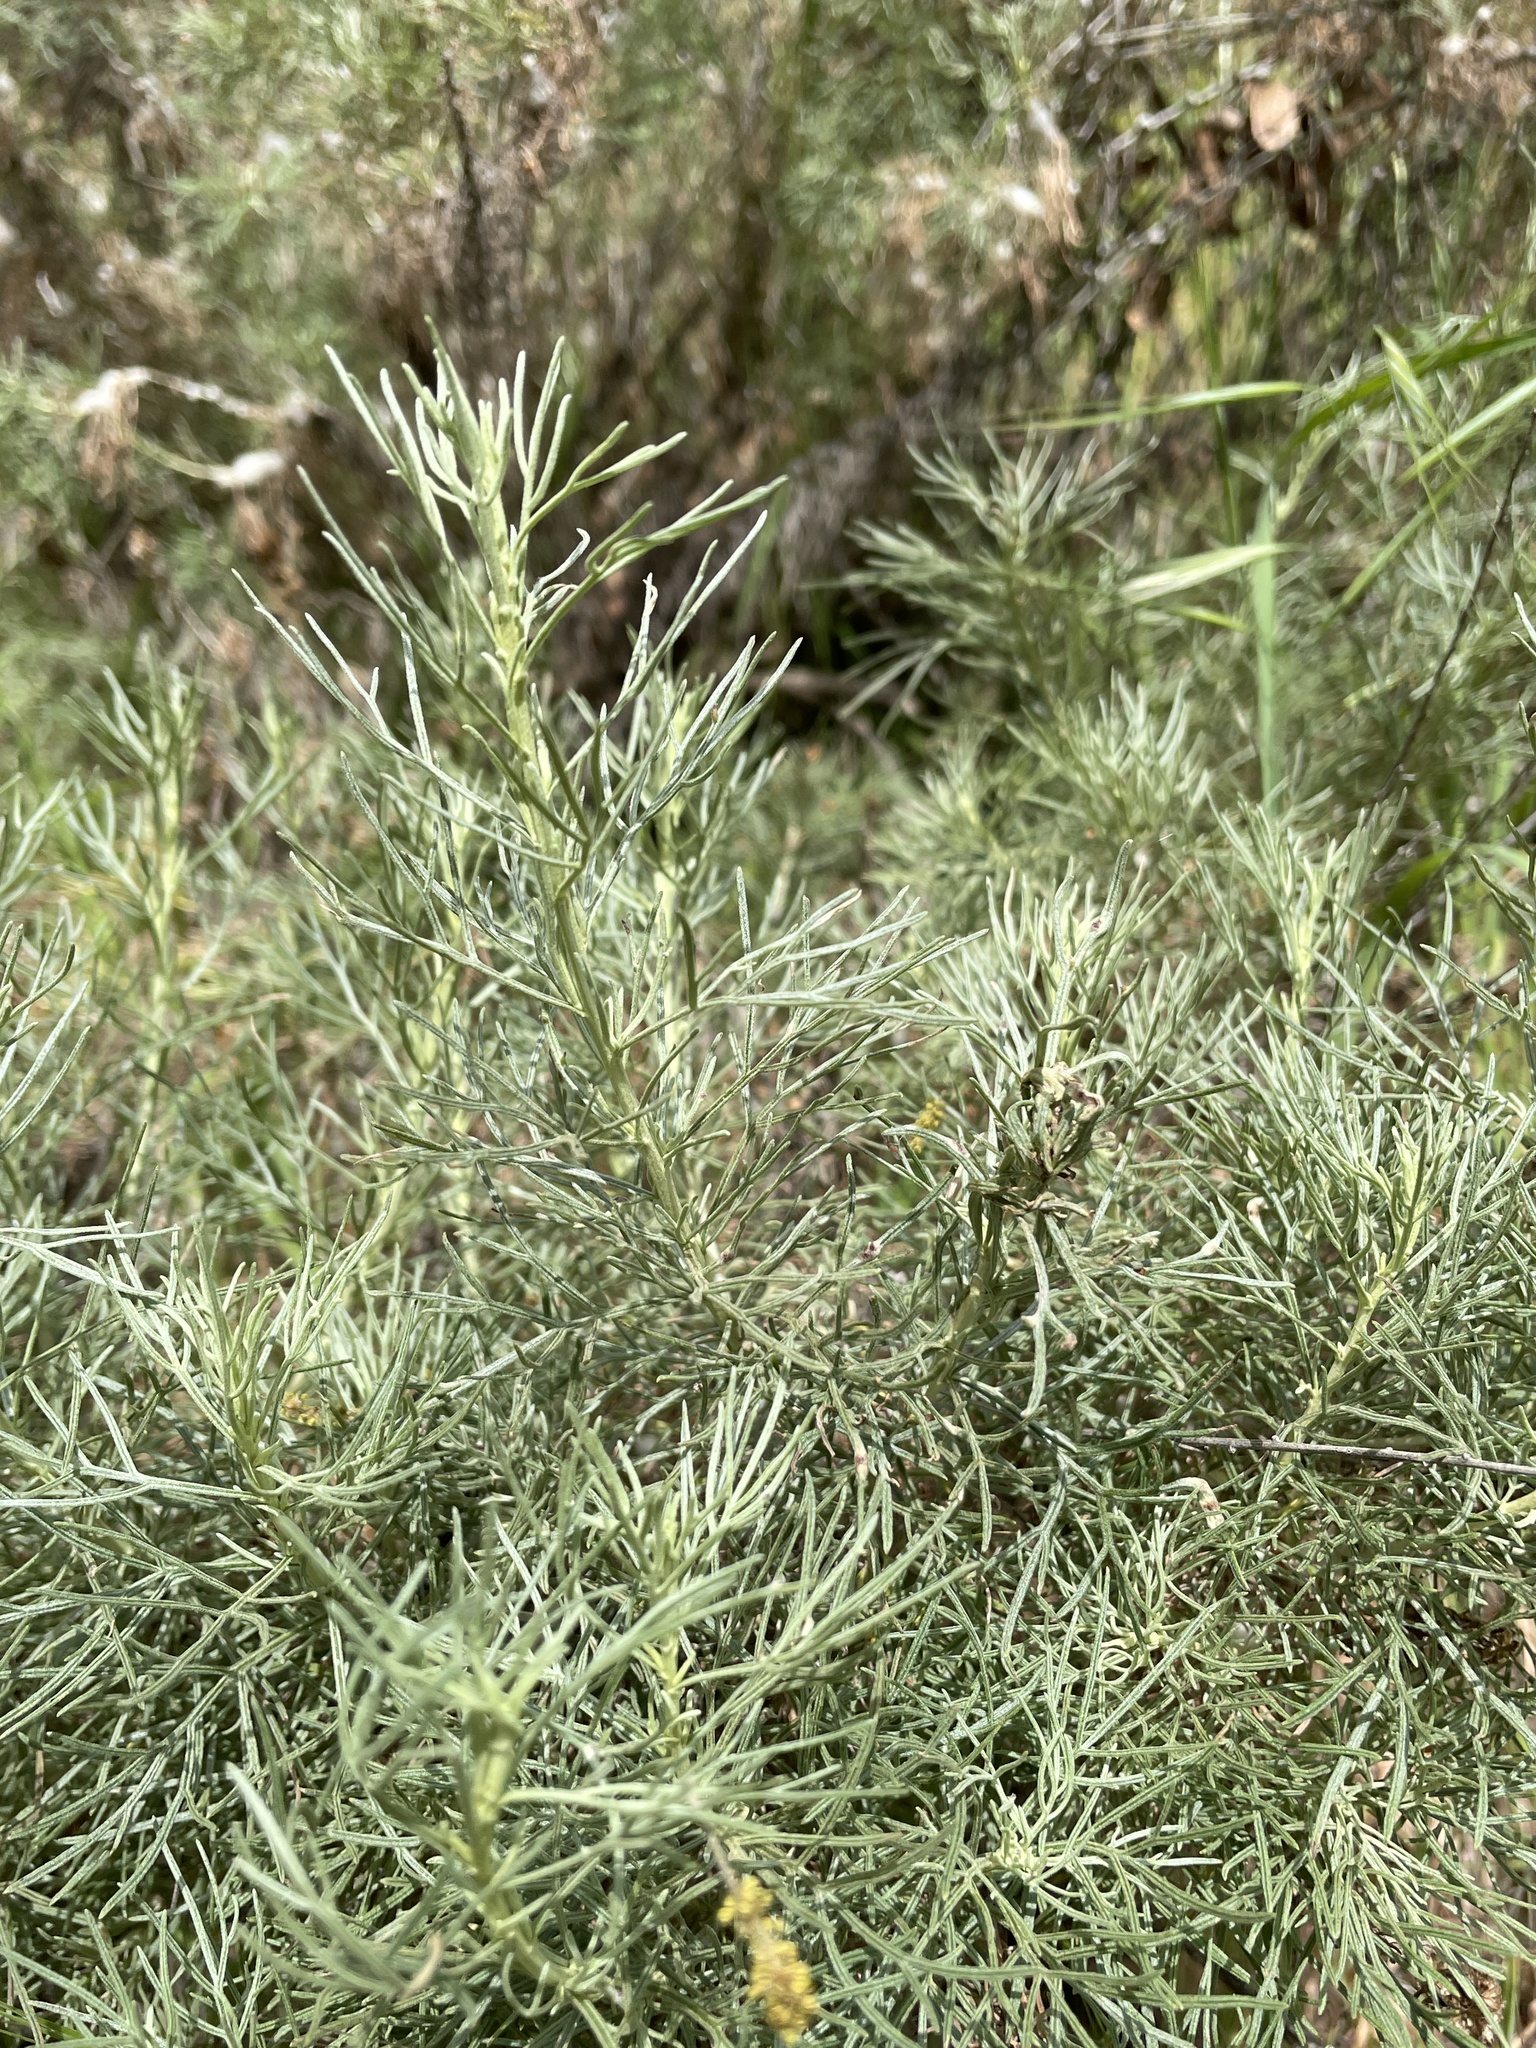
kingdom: Plantae
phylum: Tracheophyta
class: Magnoliopsida
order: Asterales
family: Asteraceae
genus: Artemisia
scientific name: Artemisia californica
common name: California sagebrush
